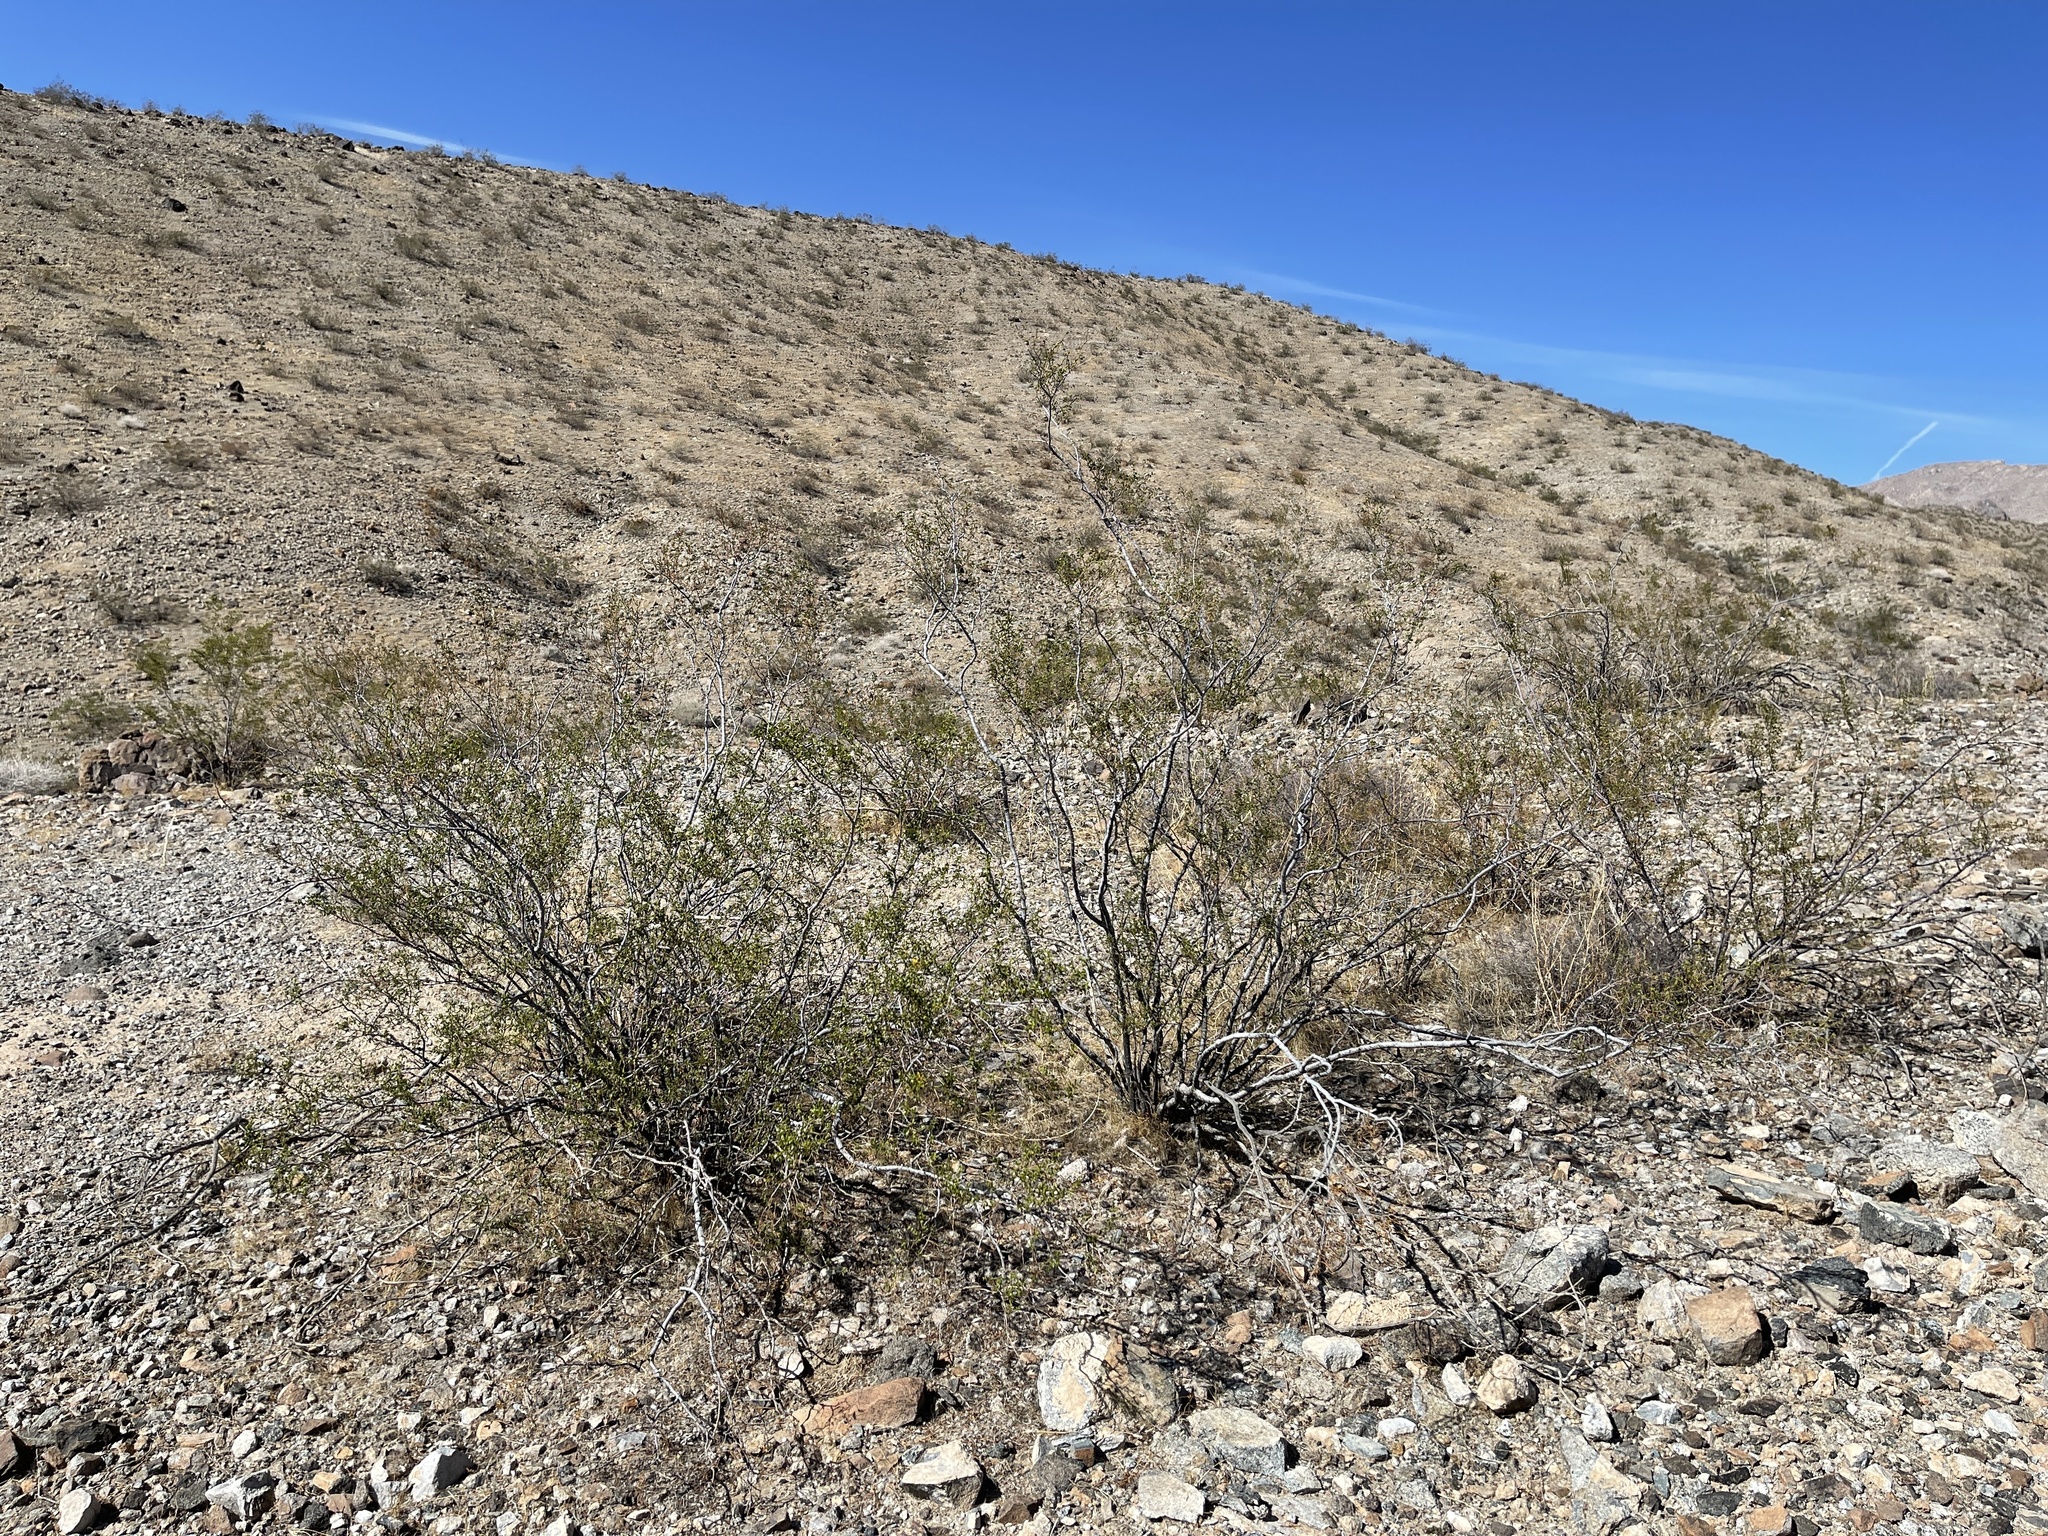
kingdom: Plantae
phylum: Tracheophyta
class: Magnoliopsida
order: Zygophyllales
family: Zygophyllaceae
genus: Larrea
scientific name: Larrea tridentata
